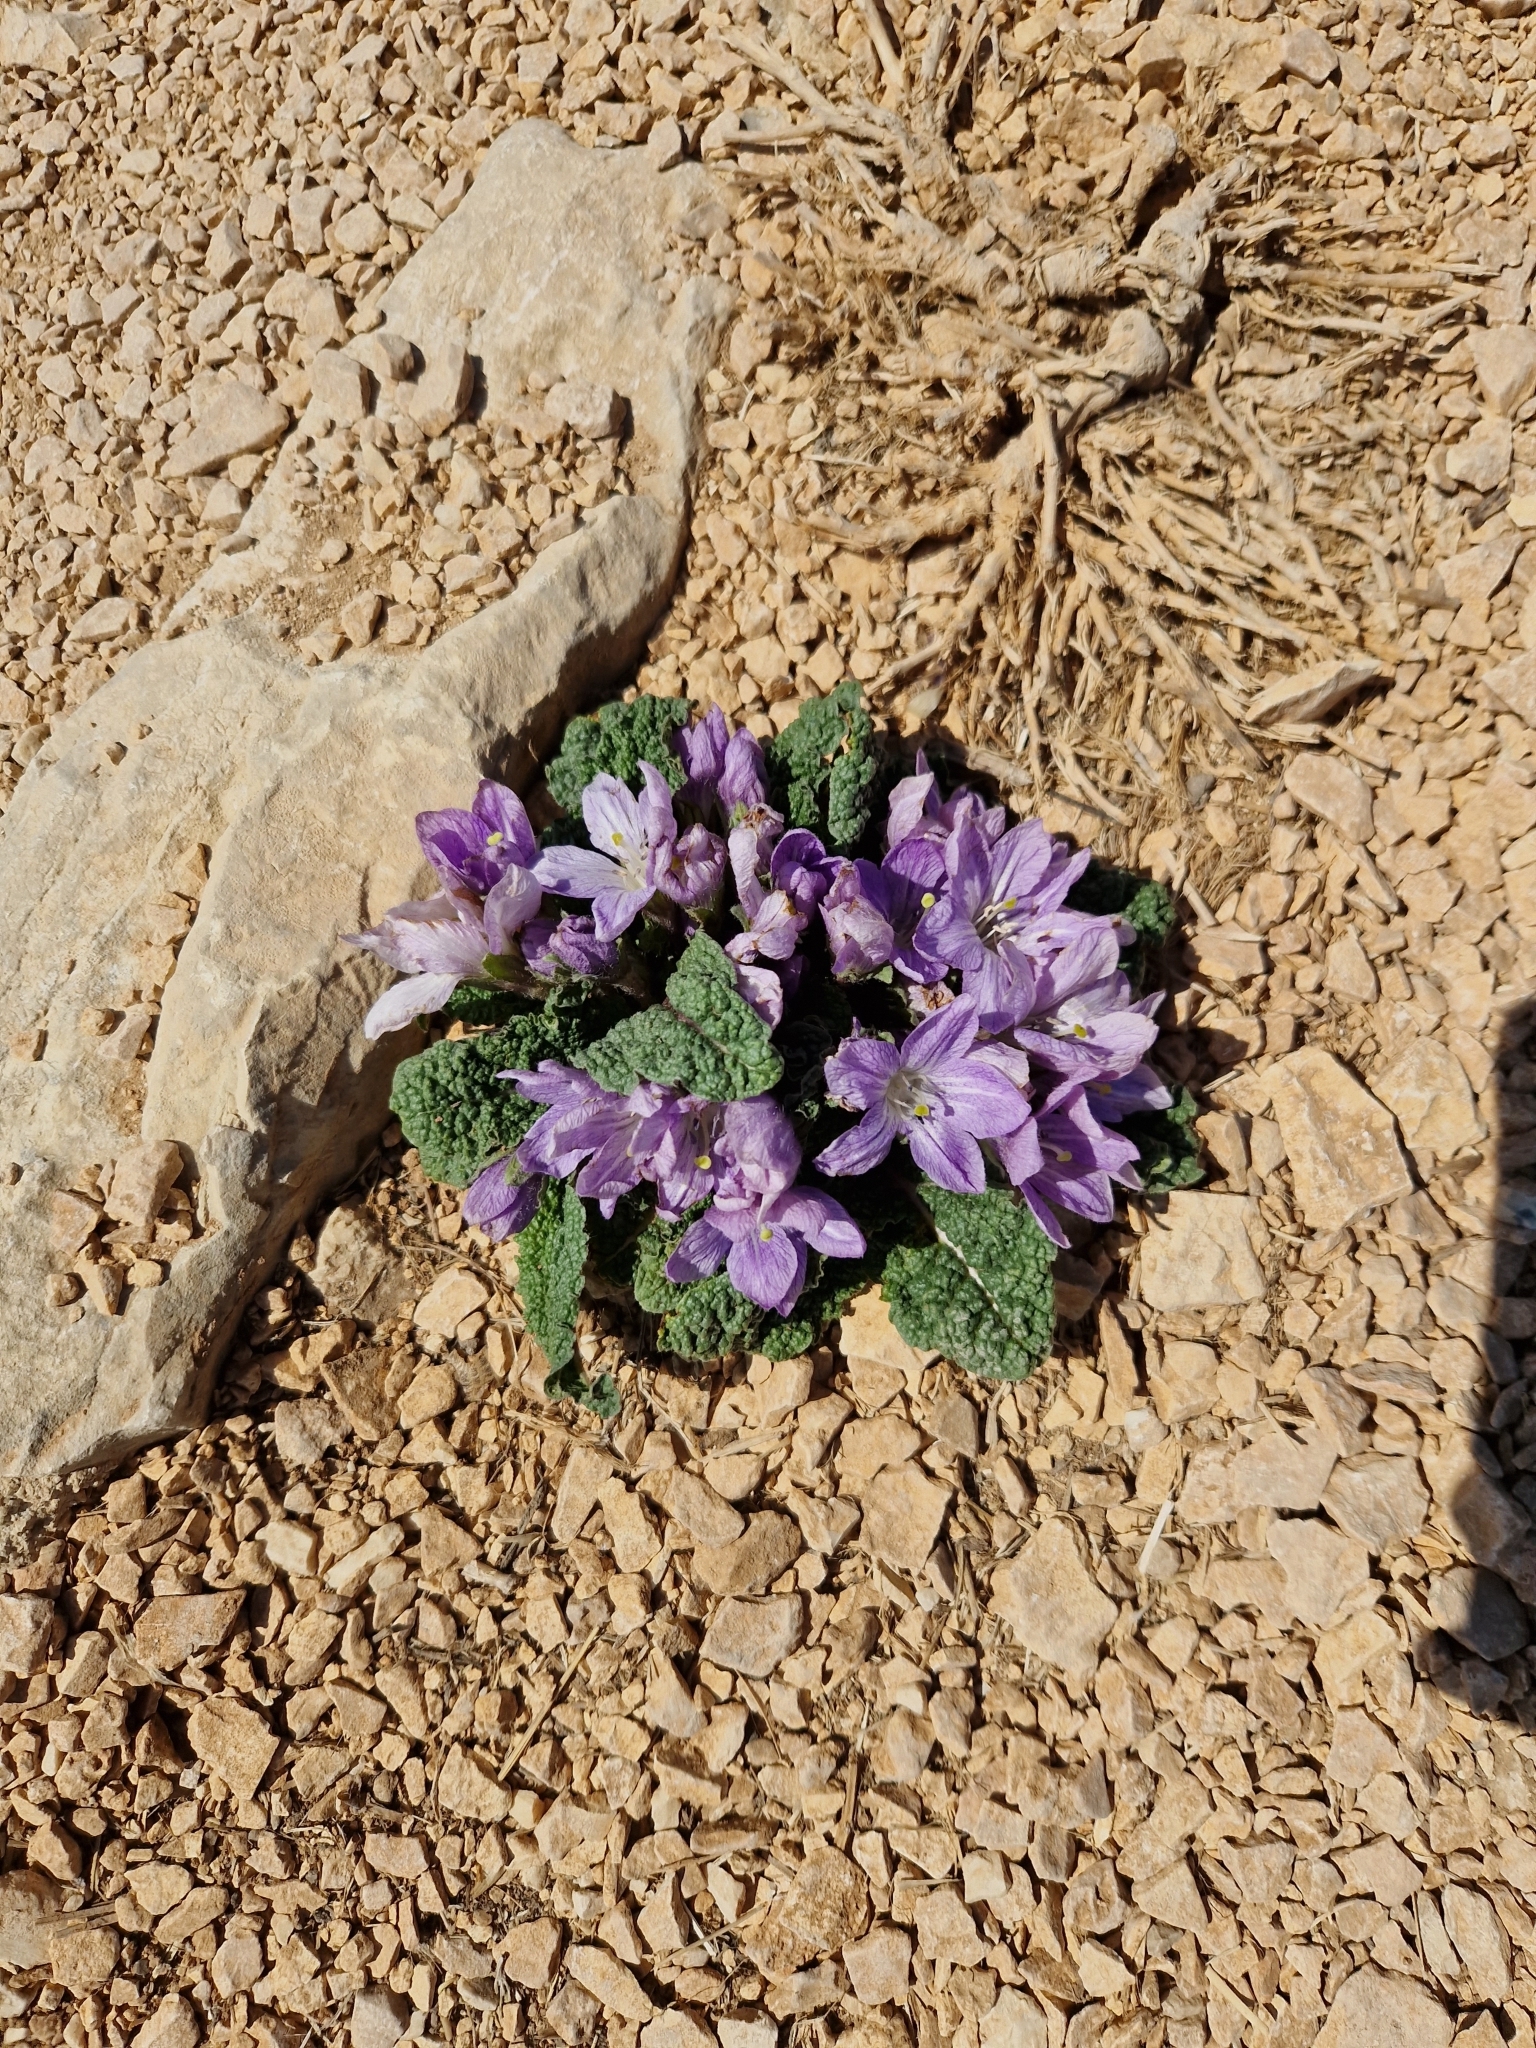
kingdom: Plantae
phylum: Tracheophyta
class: Magnoliopsida
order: Solanales
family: Solanaceae
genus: Mandragora
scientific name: Mandragora officinarum
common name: Mandrake
